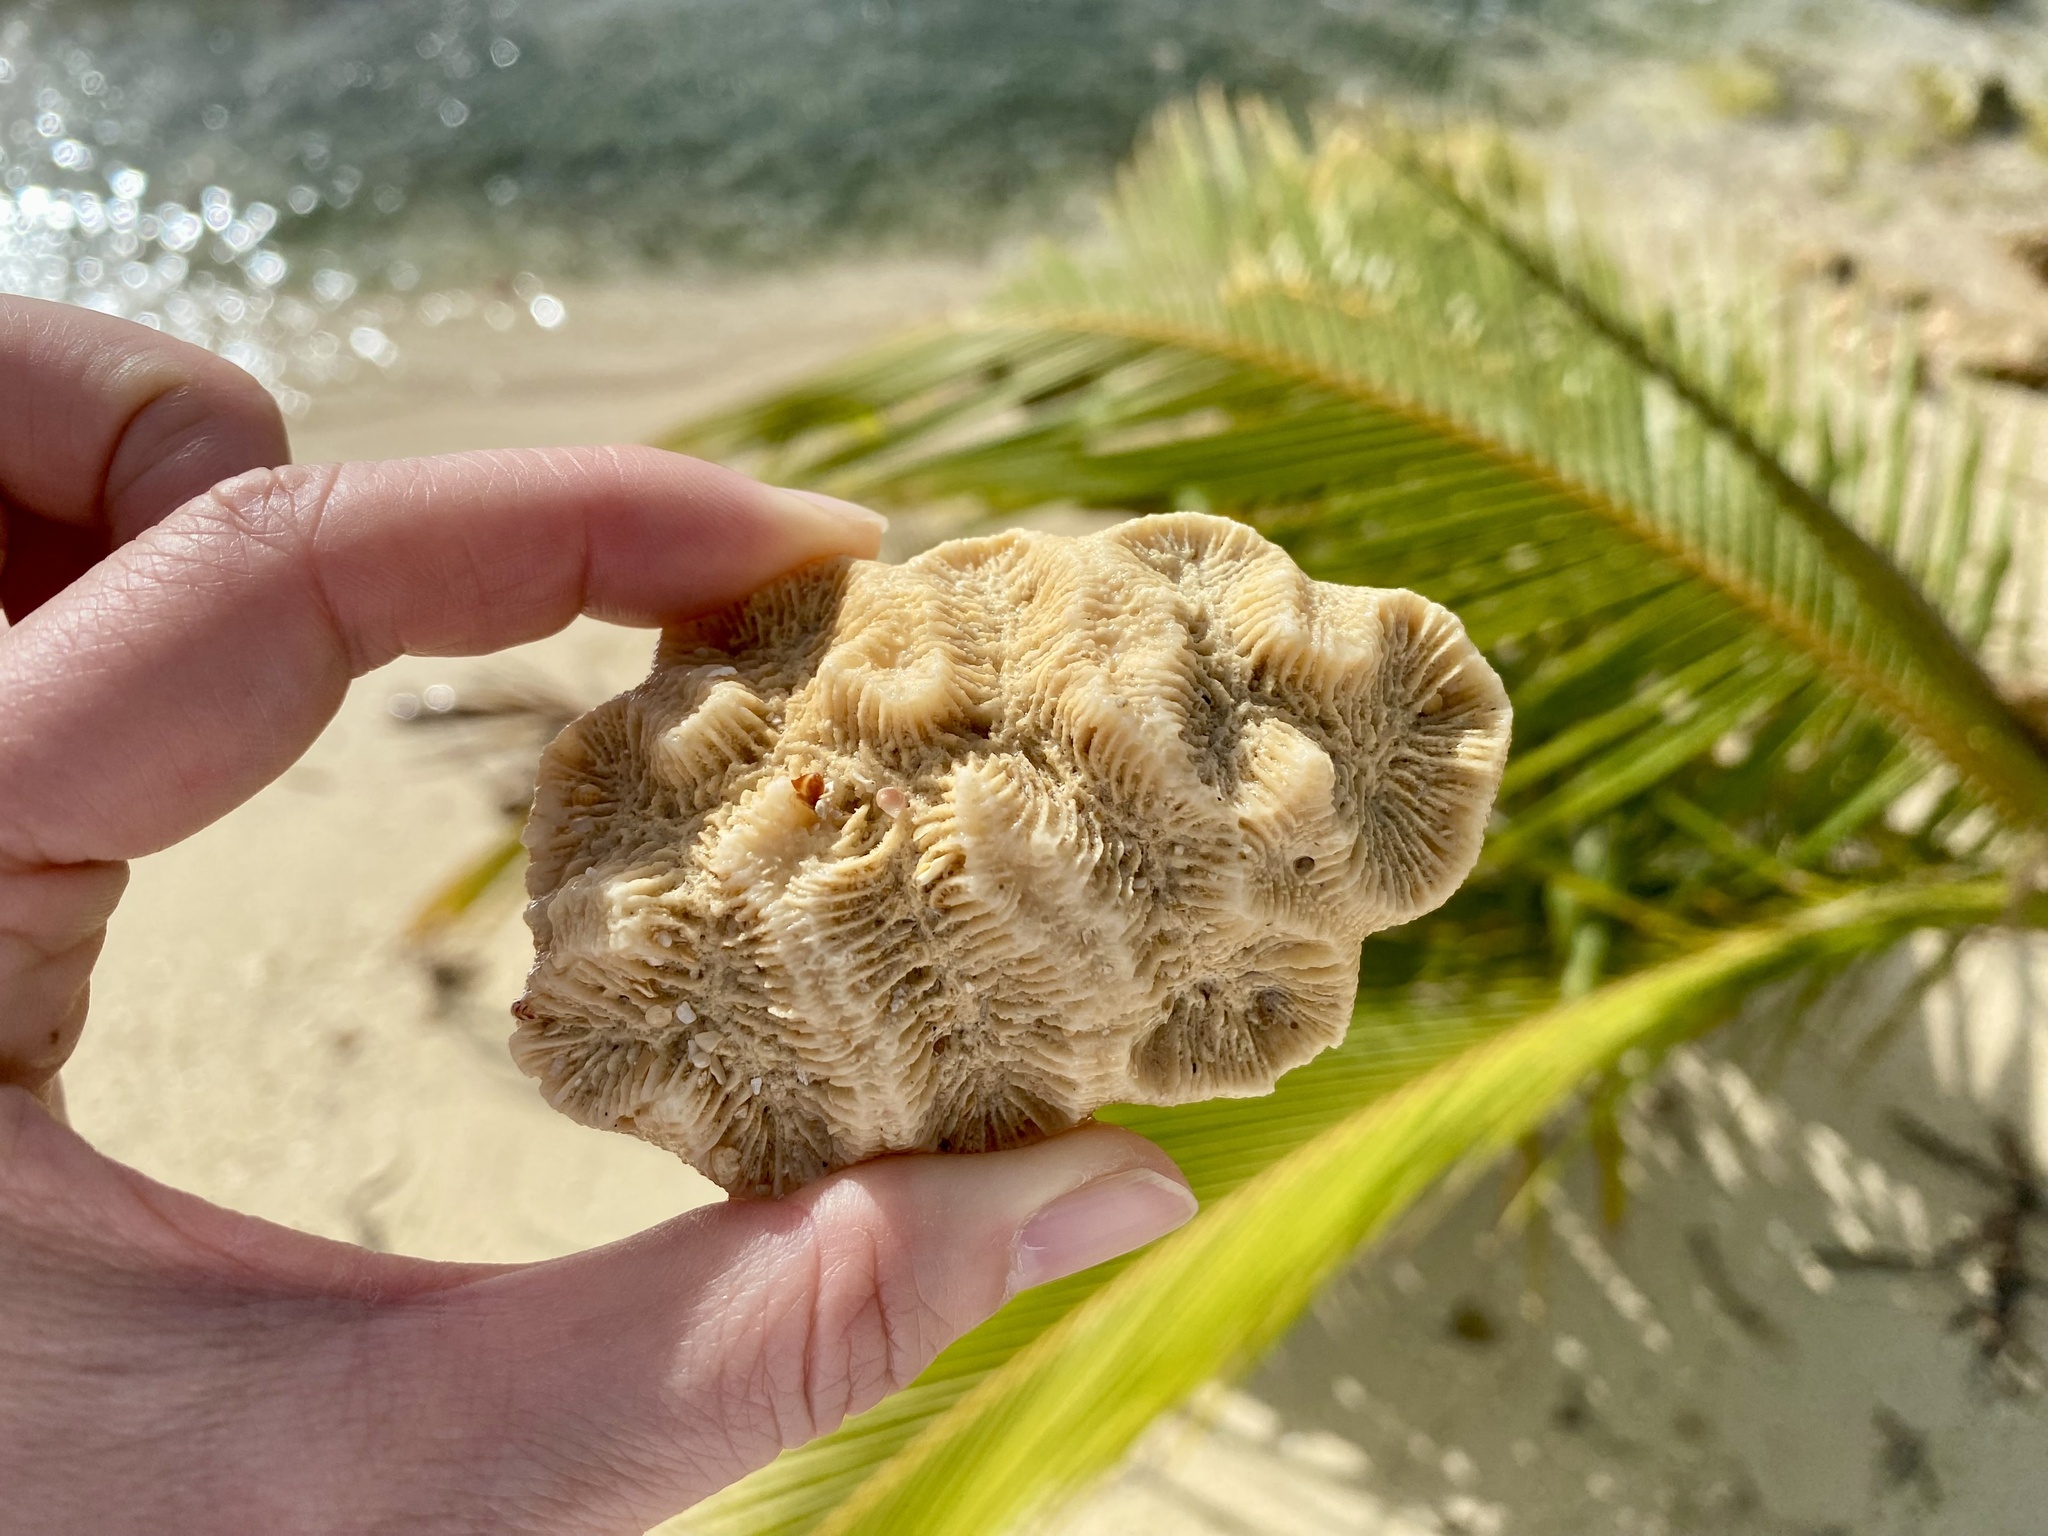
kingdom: Animalia
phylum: Cnidaria
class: Anthozoa
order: Scleractinia
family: Faviidae
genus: Manicina
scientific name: Manicina areolata
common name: Rose coral
